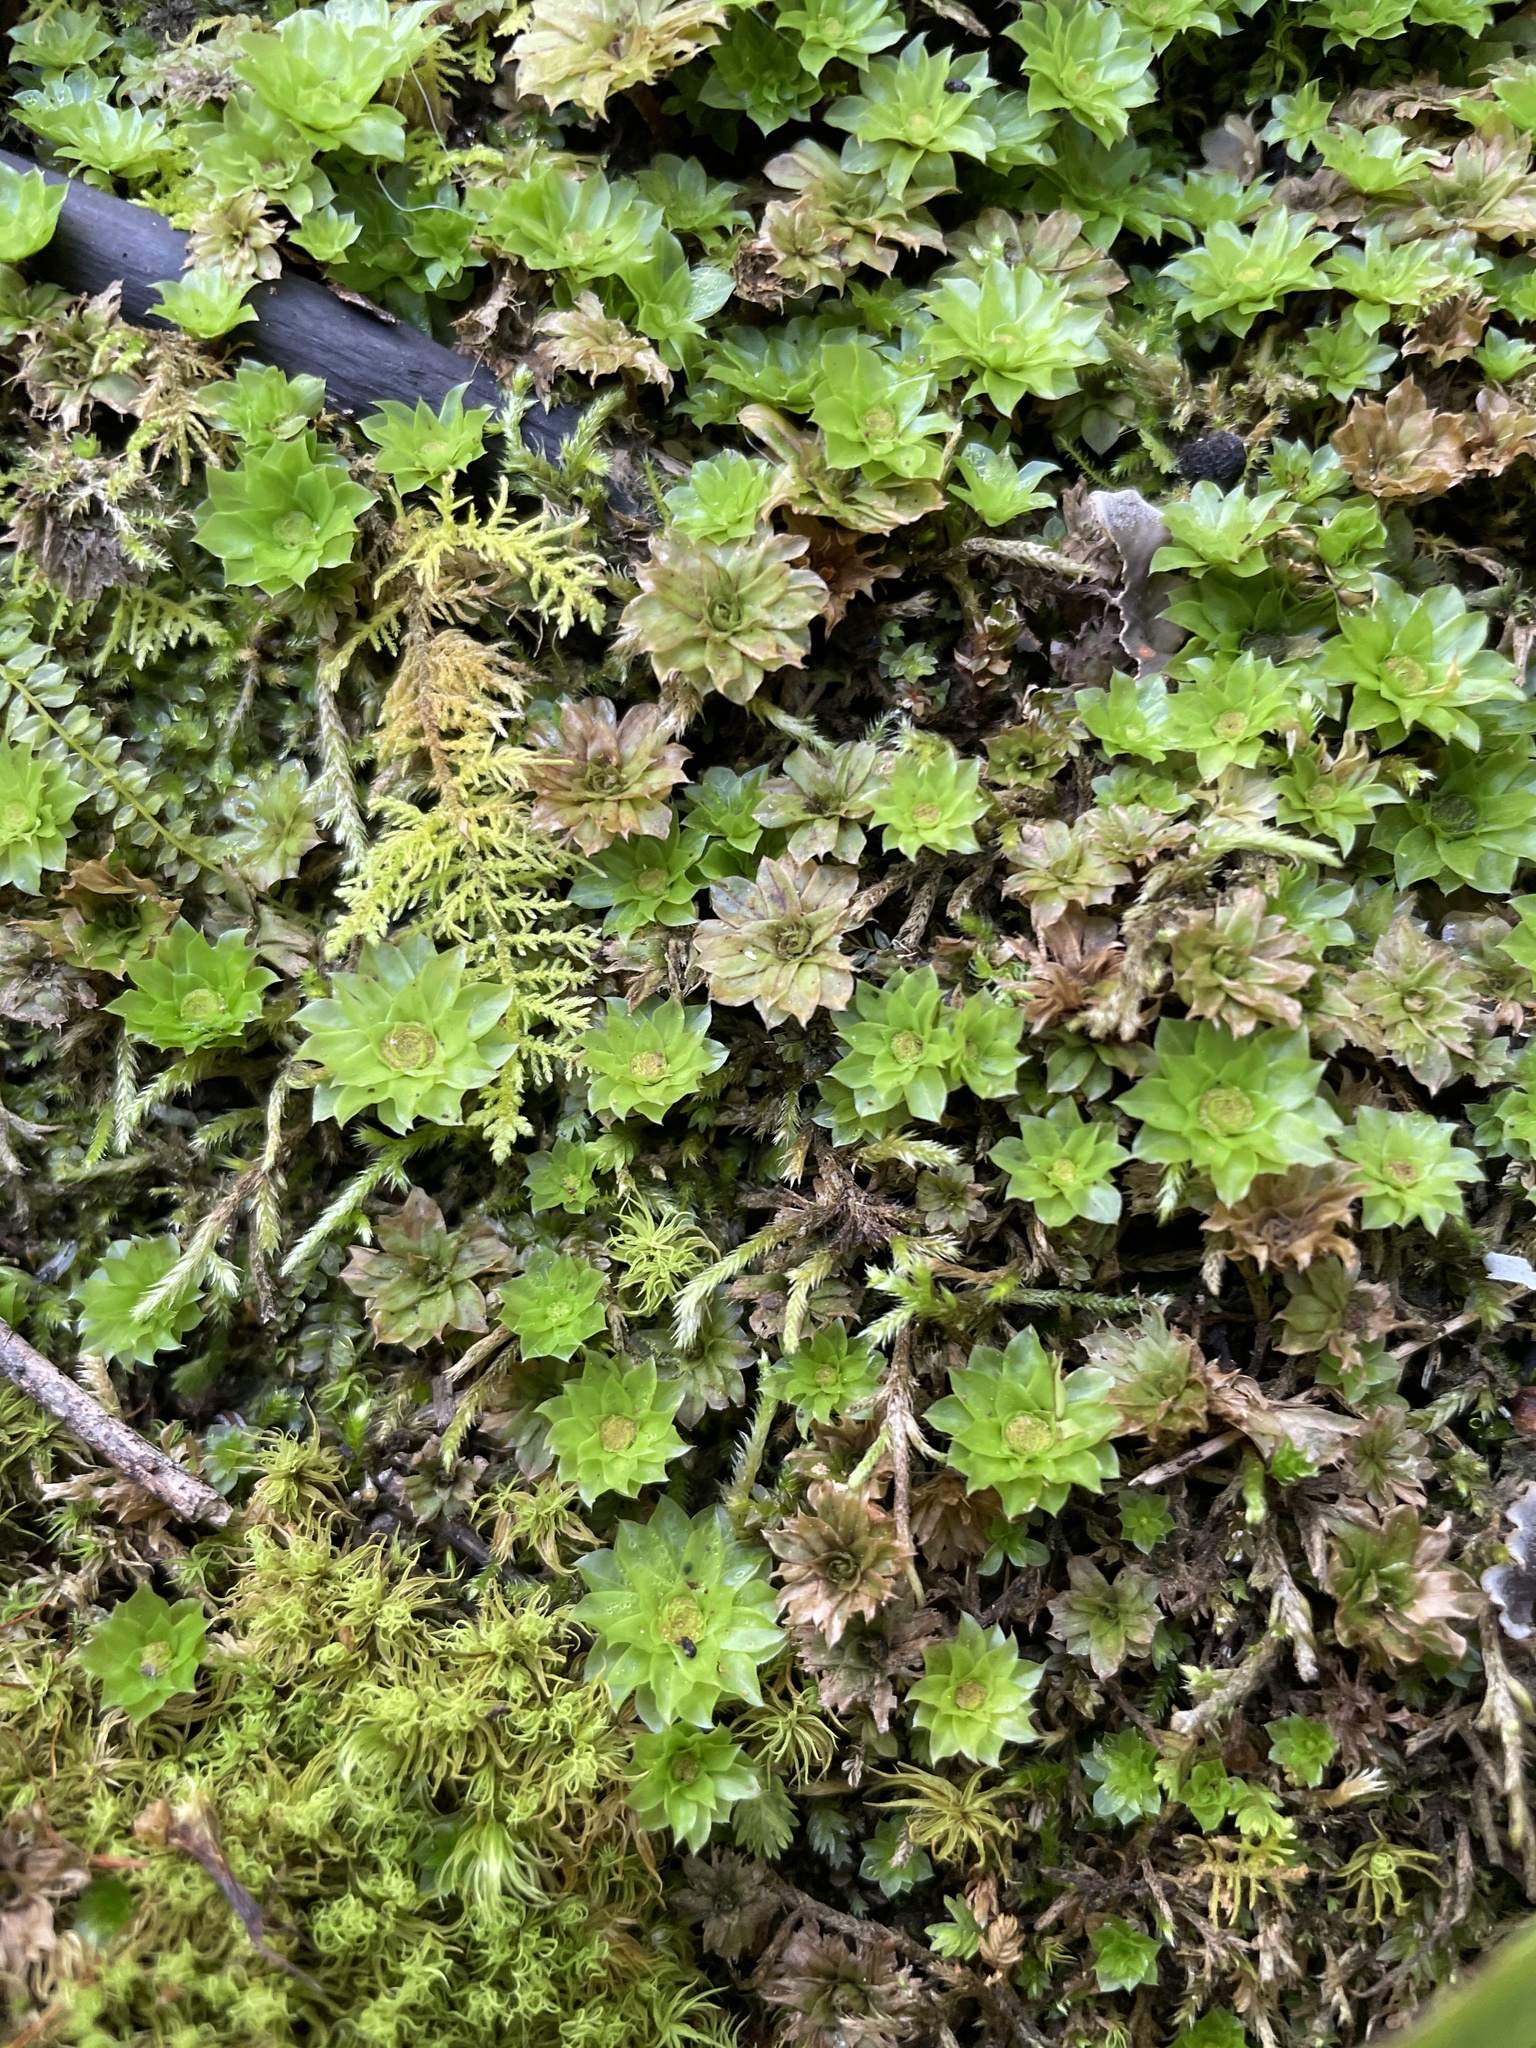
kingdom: Plantae
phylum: Bryophyta
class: Bryopsida
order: Bryales
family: Bryaceae
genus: Rhodobryum
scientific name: Rhodobryum ontariense
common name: Ontario rhodobryum moss
